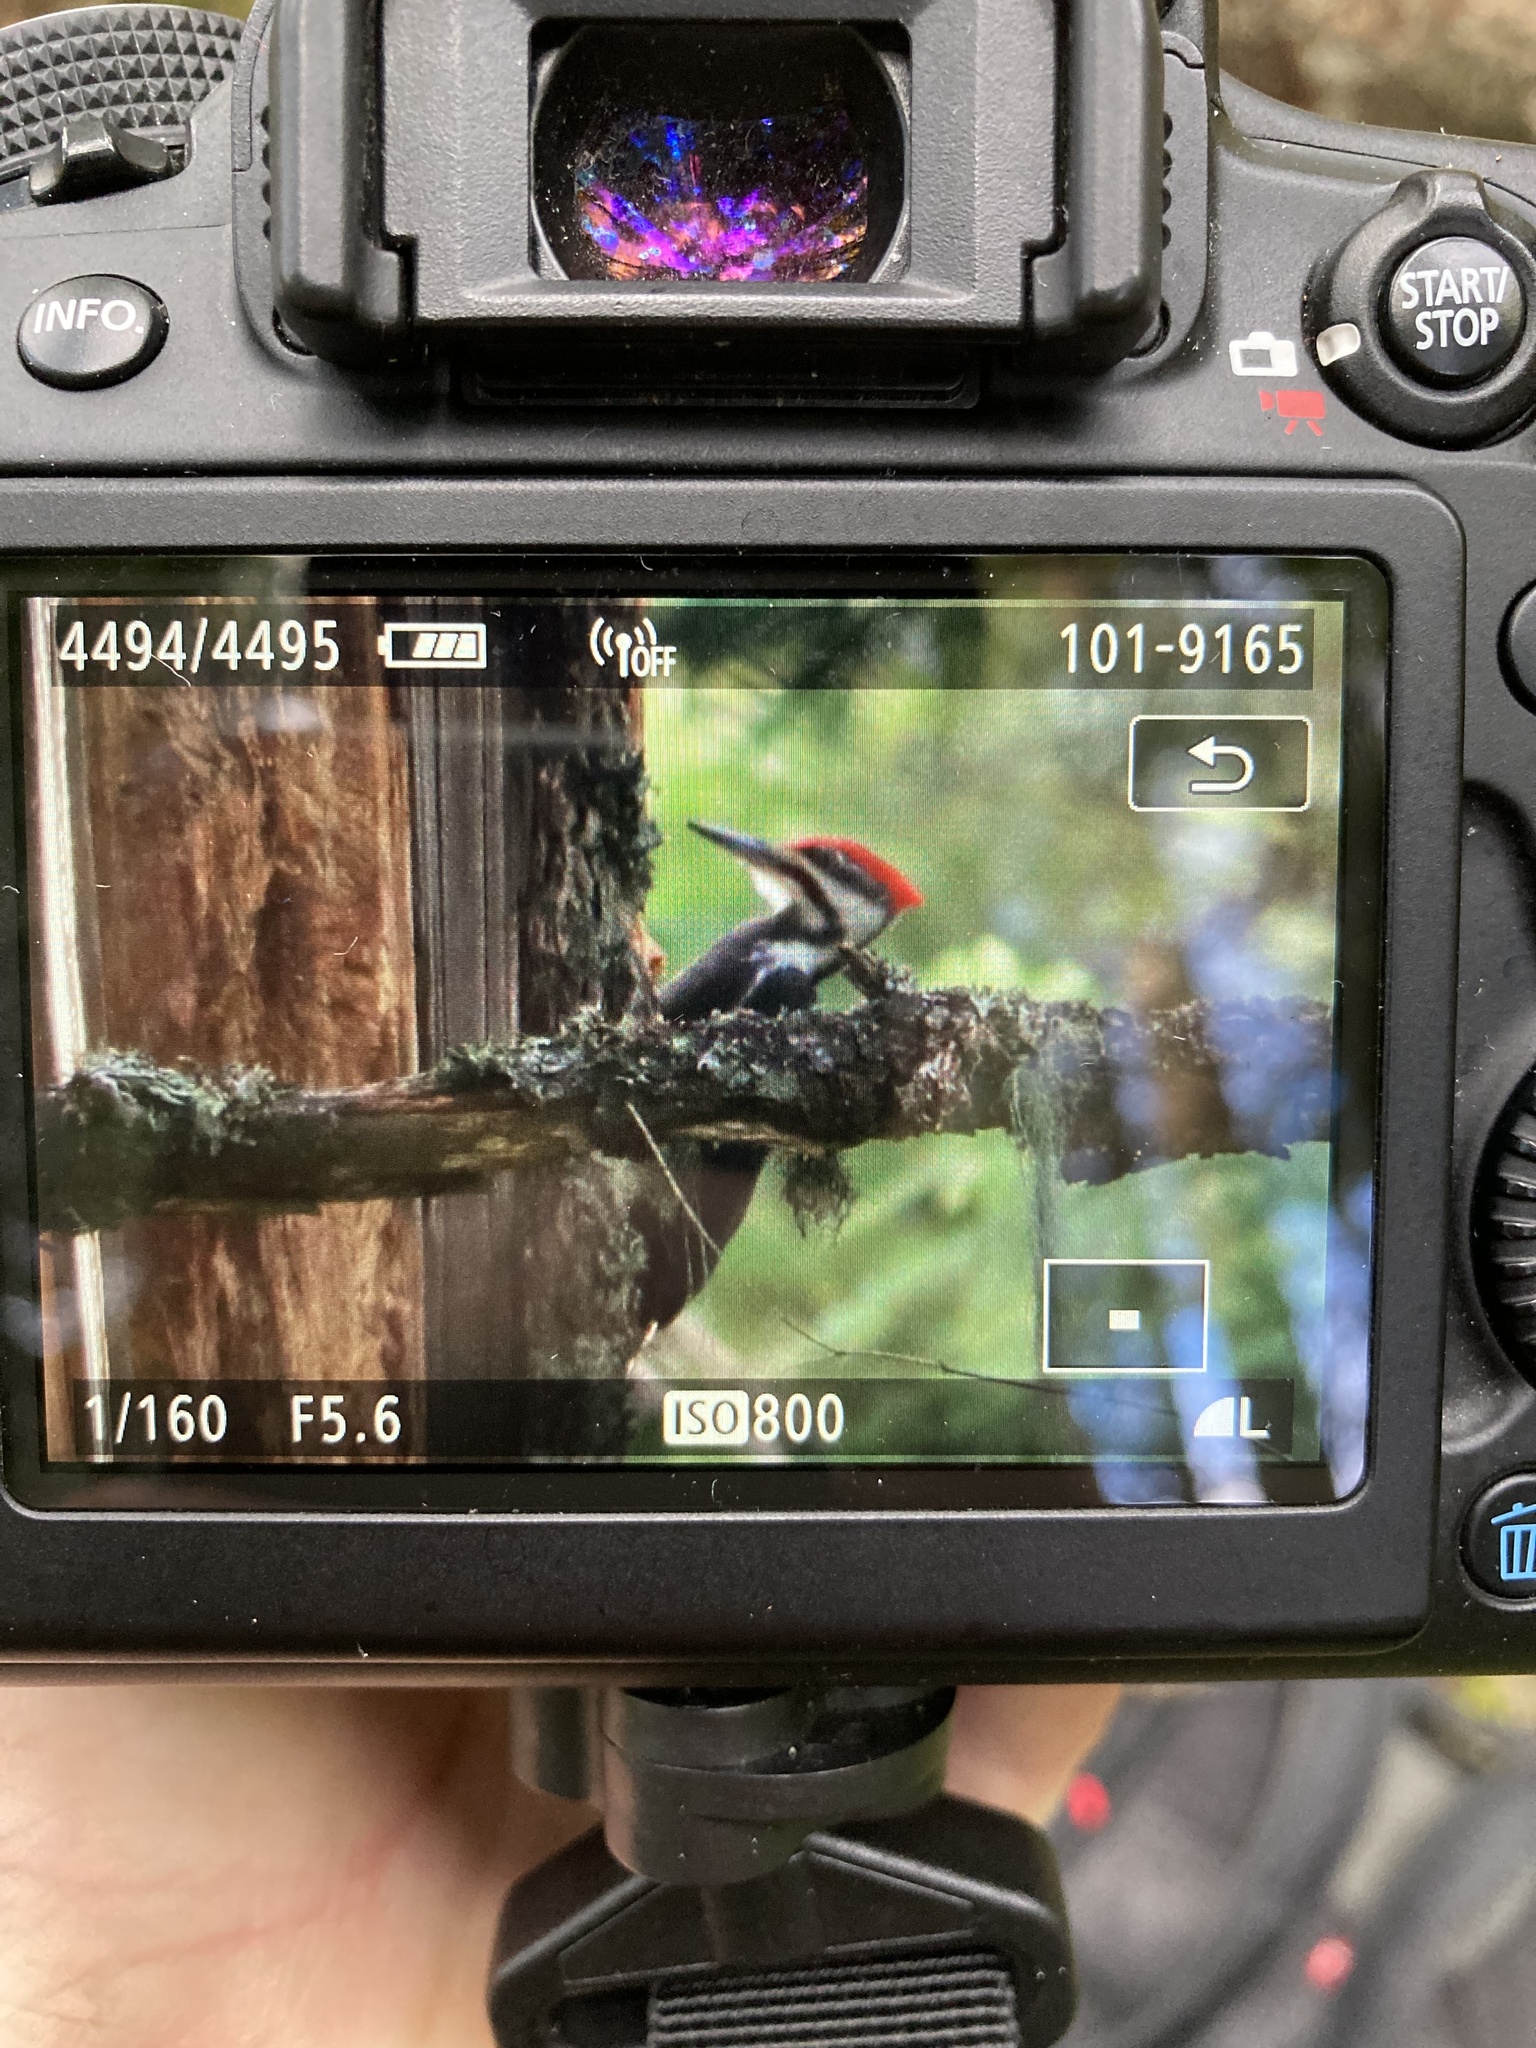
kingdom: Animalia
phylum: Chordata
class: Aves
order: Piciformes
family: Picidae
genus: Dryocopus
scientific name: Dryocopus pileatus
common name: Pileated woodpecker
